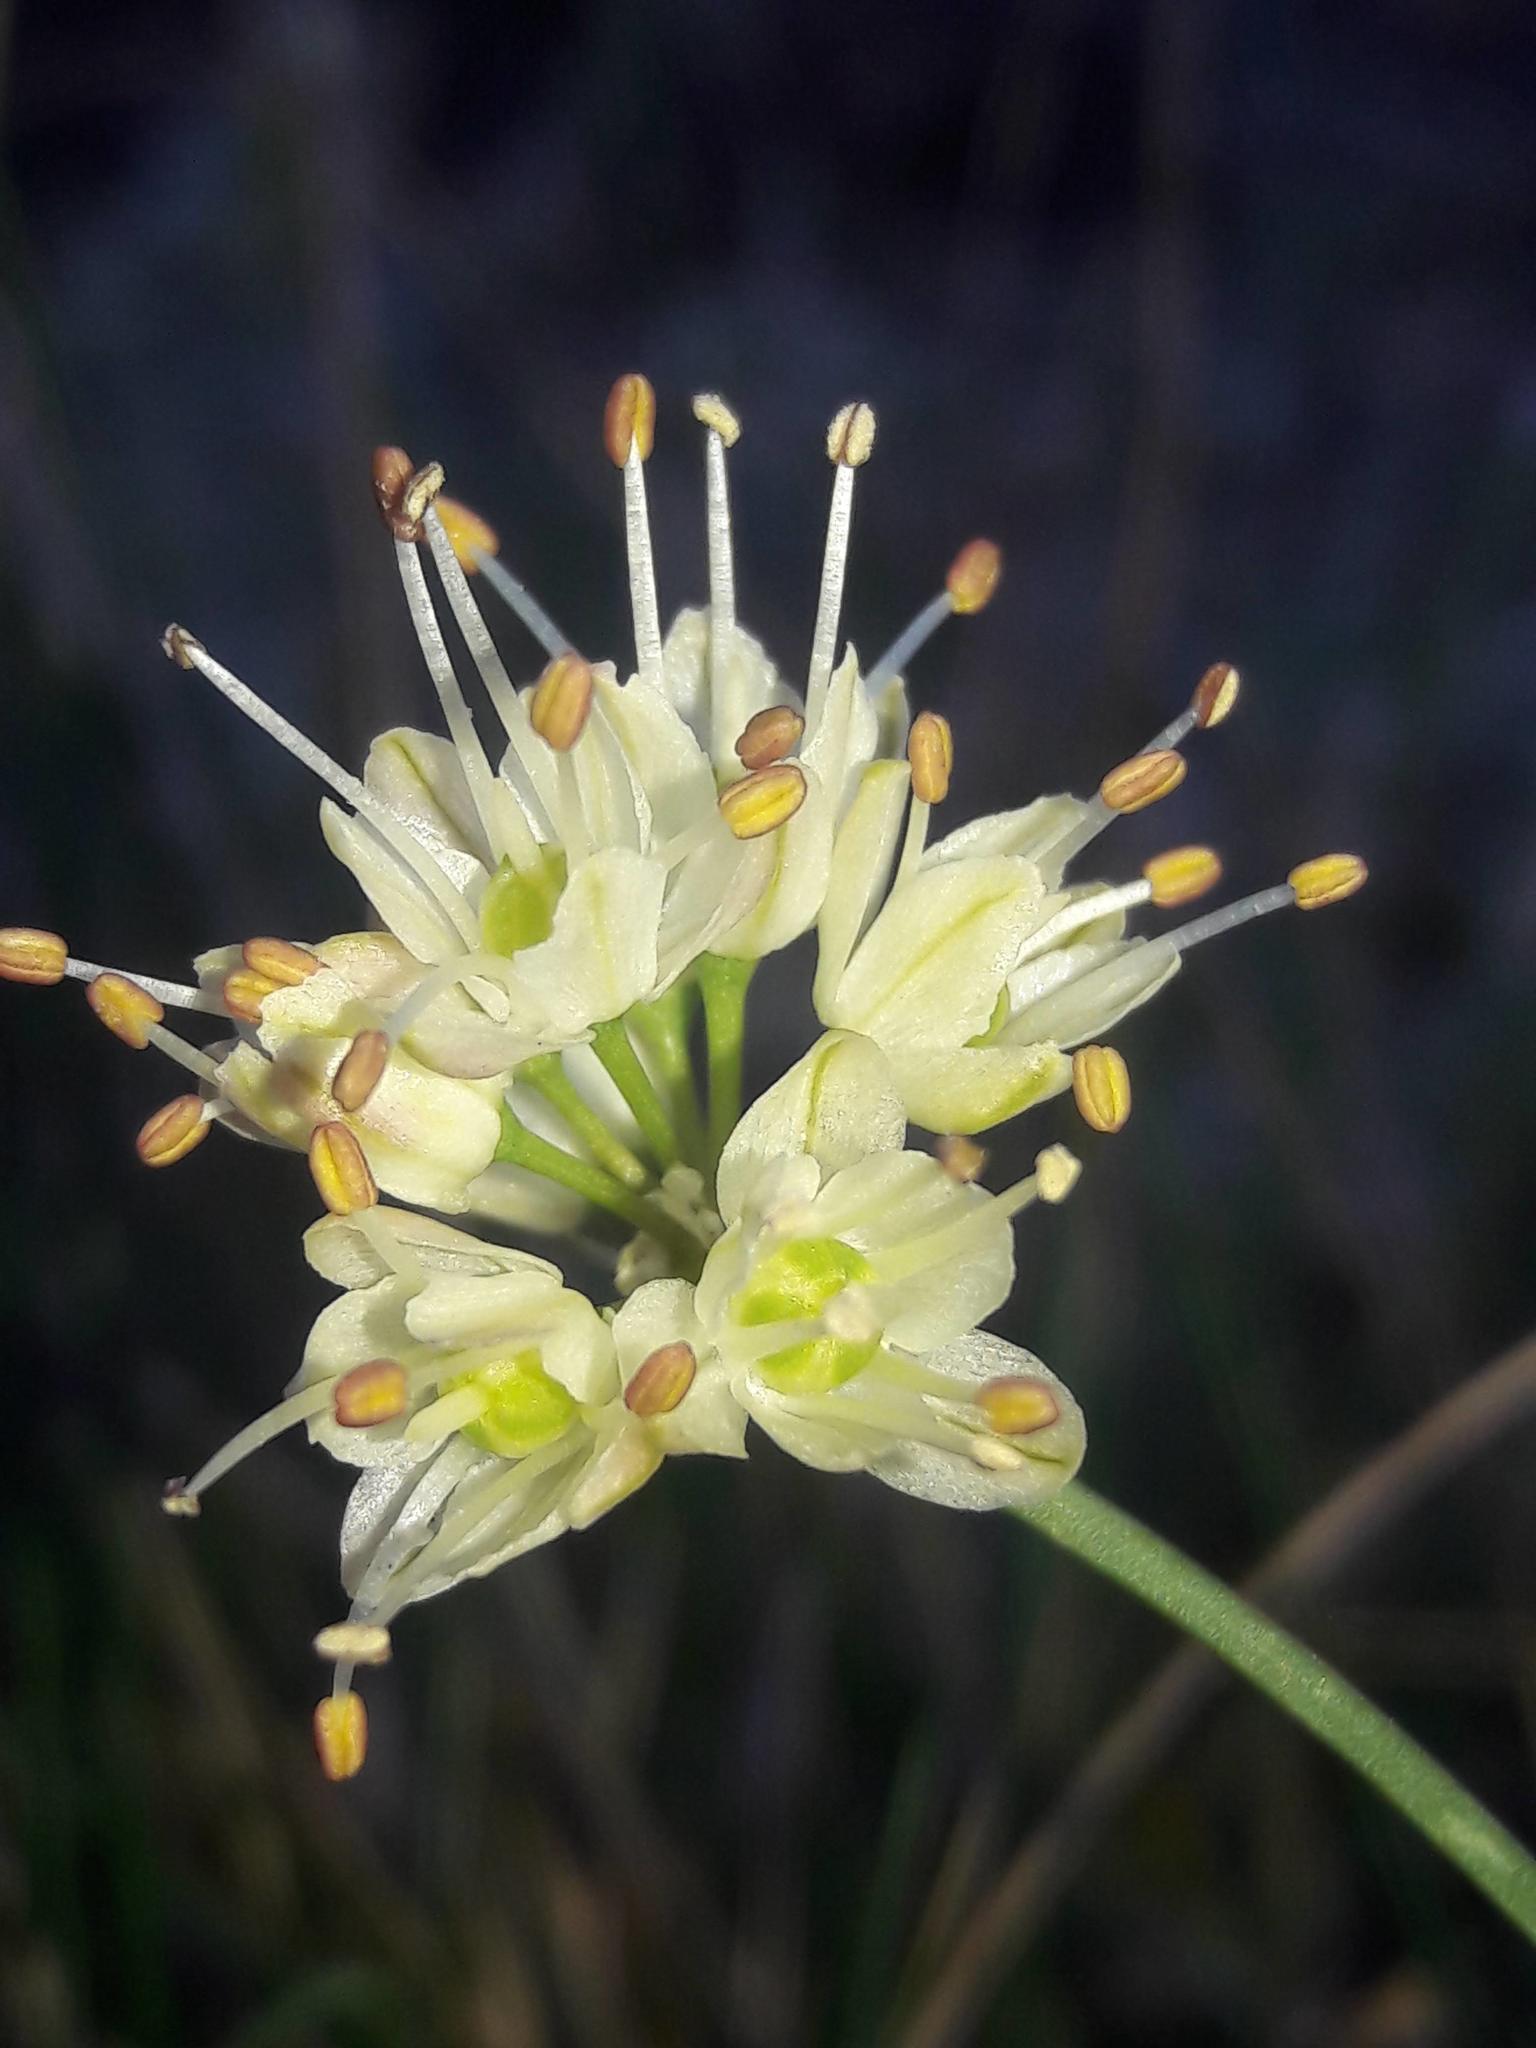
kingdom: Plantae
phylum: Tracheophyta
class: Liliopsida
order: Asparagales
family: Amaryllidaceae
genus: Allium
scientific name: Allium ericetorum
